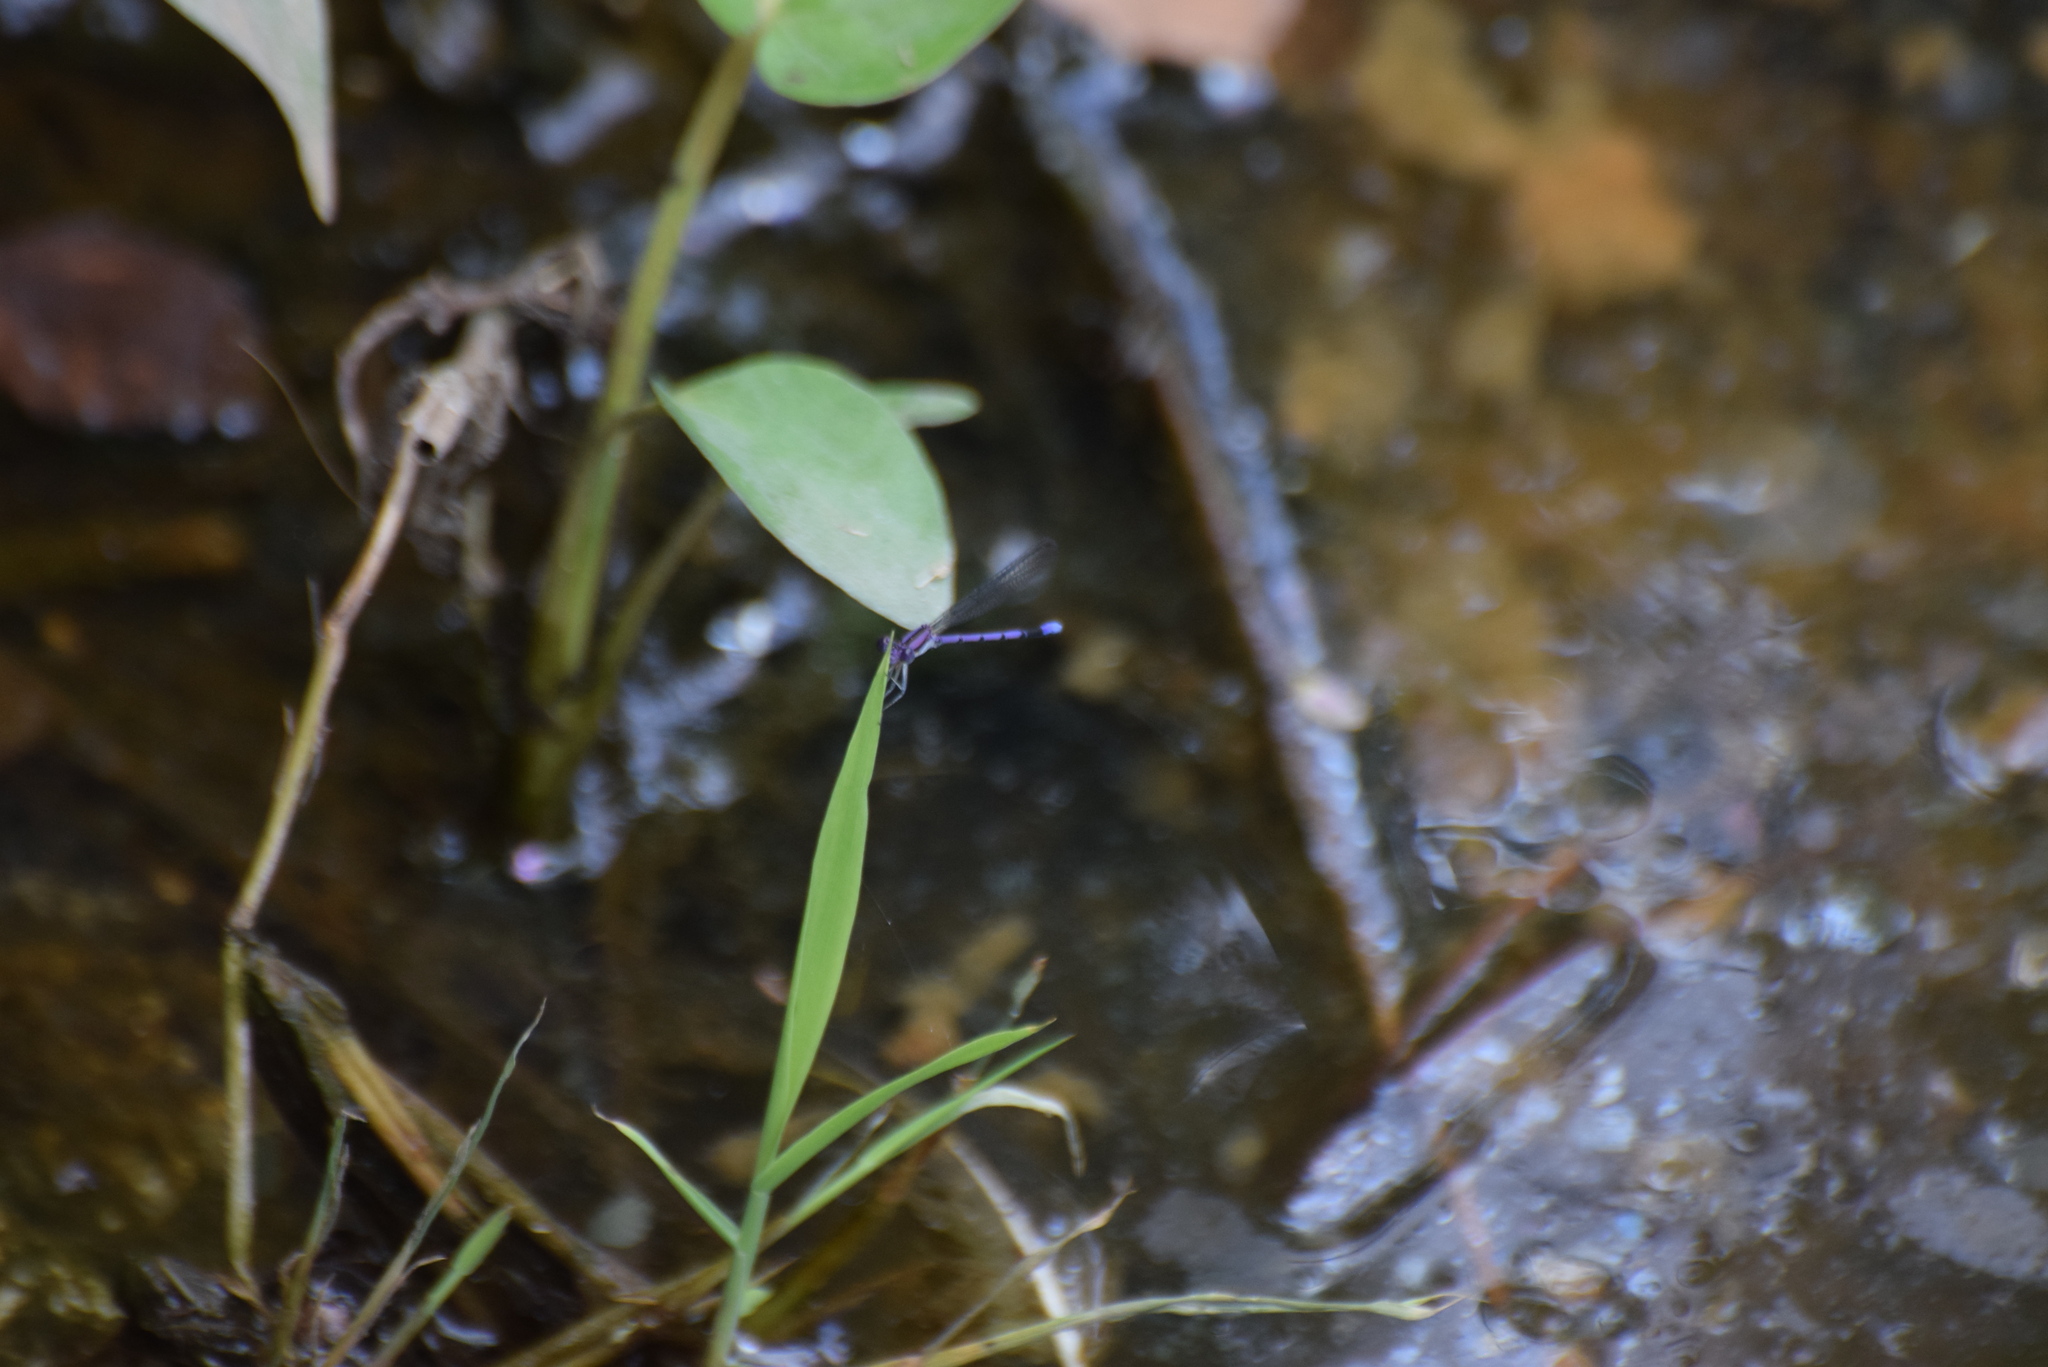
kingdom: Animalia
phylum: Arthropoda
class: Insecta
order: Odonata
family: Coenagrionidae
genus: Argia
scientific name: Argia fumipennis
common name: Variable dancer
